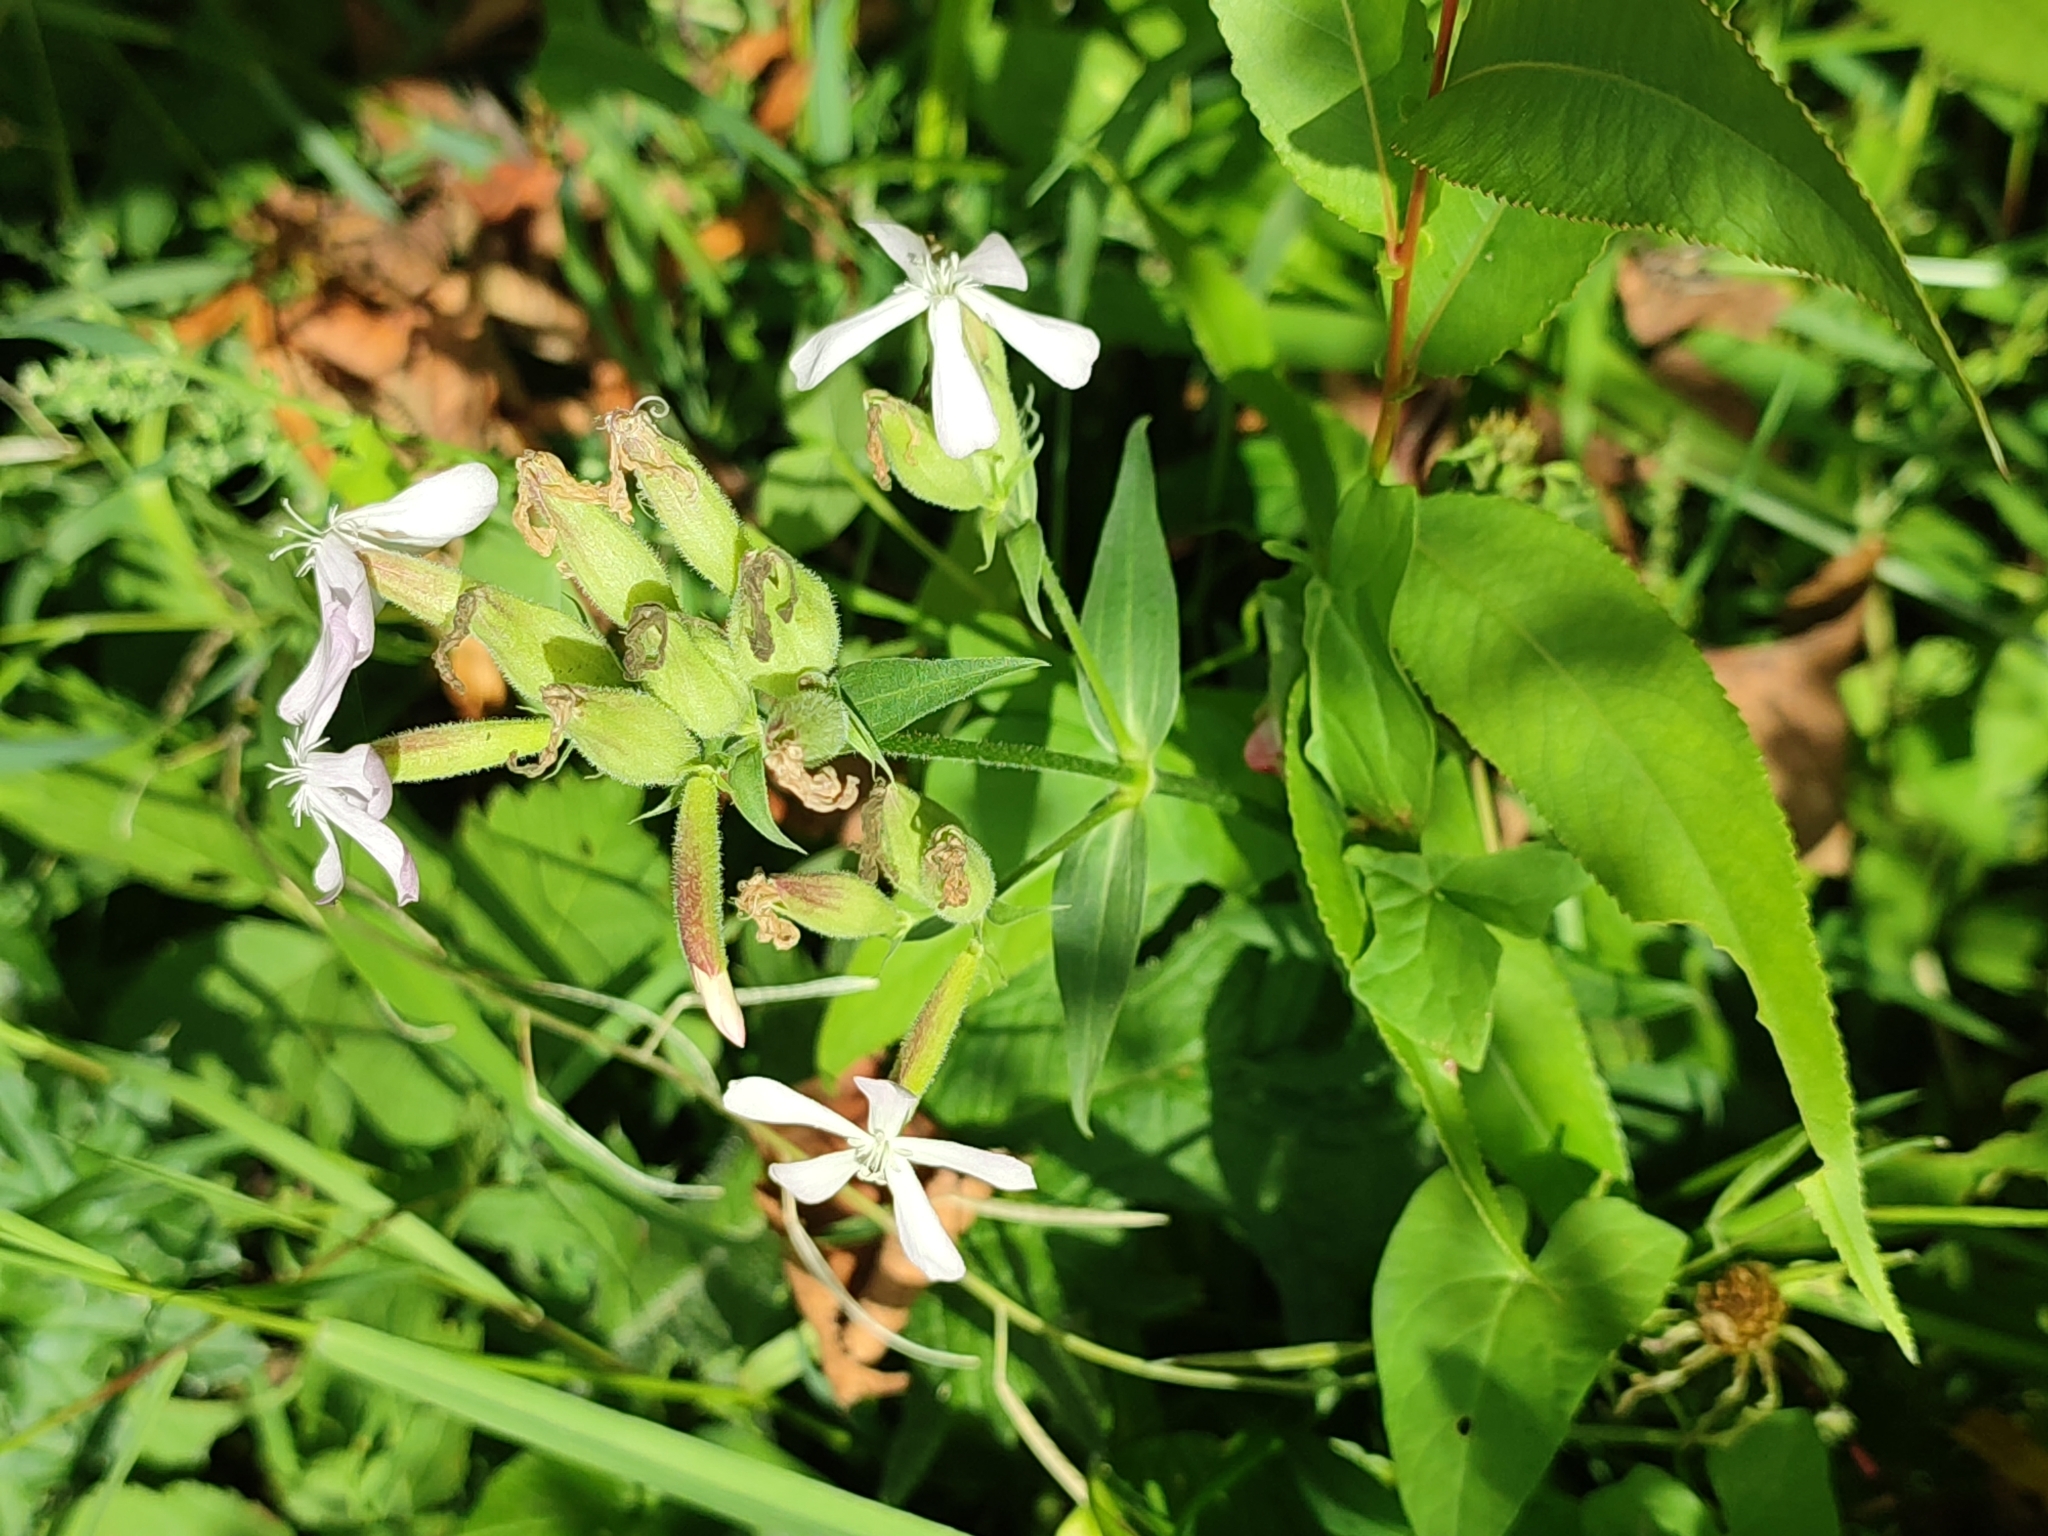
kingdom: Plantae
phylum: Tracheophyta
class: Magnoliopsida
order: Caryophyllales
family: Caryophyllaceae
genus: Saponaria
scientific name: Saponaria officinalis
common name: Soapwort
